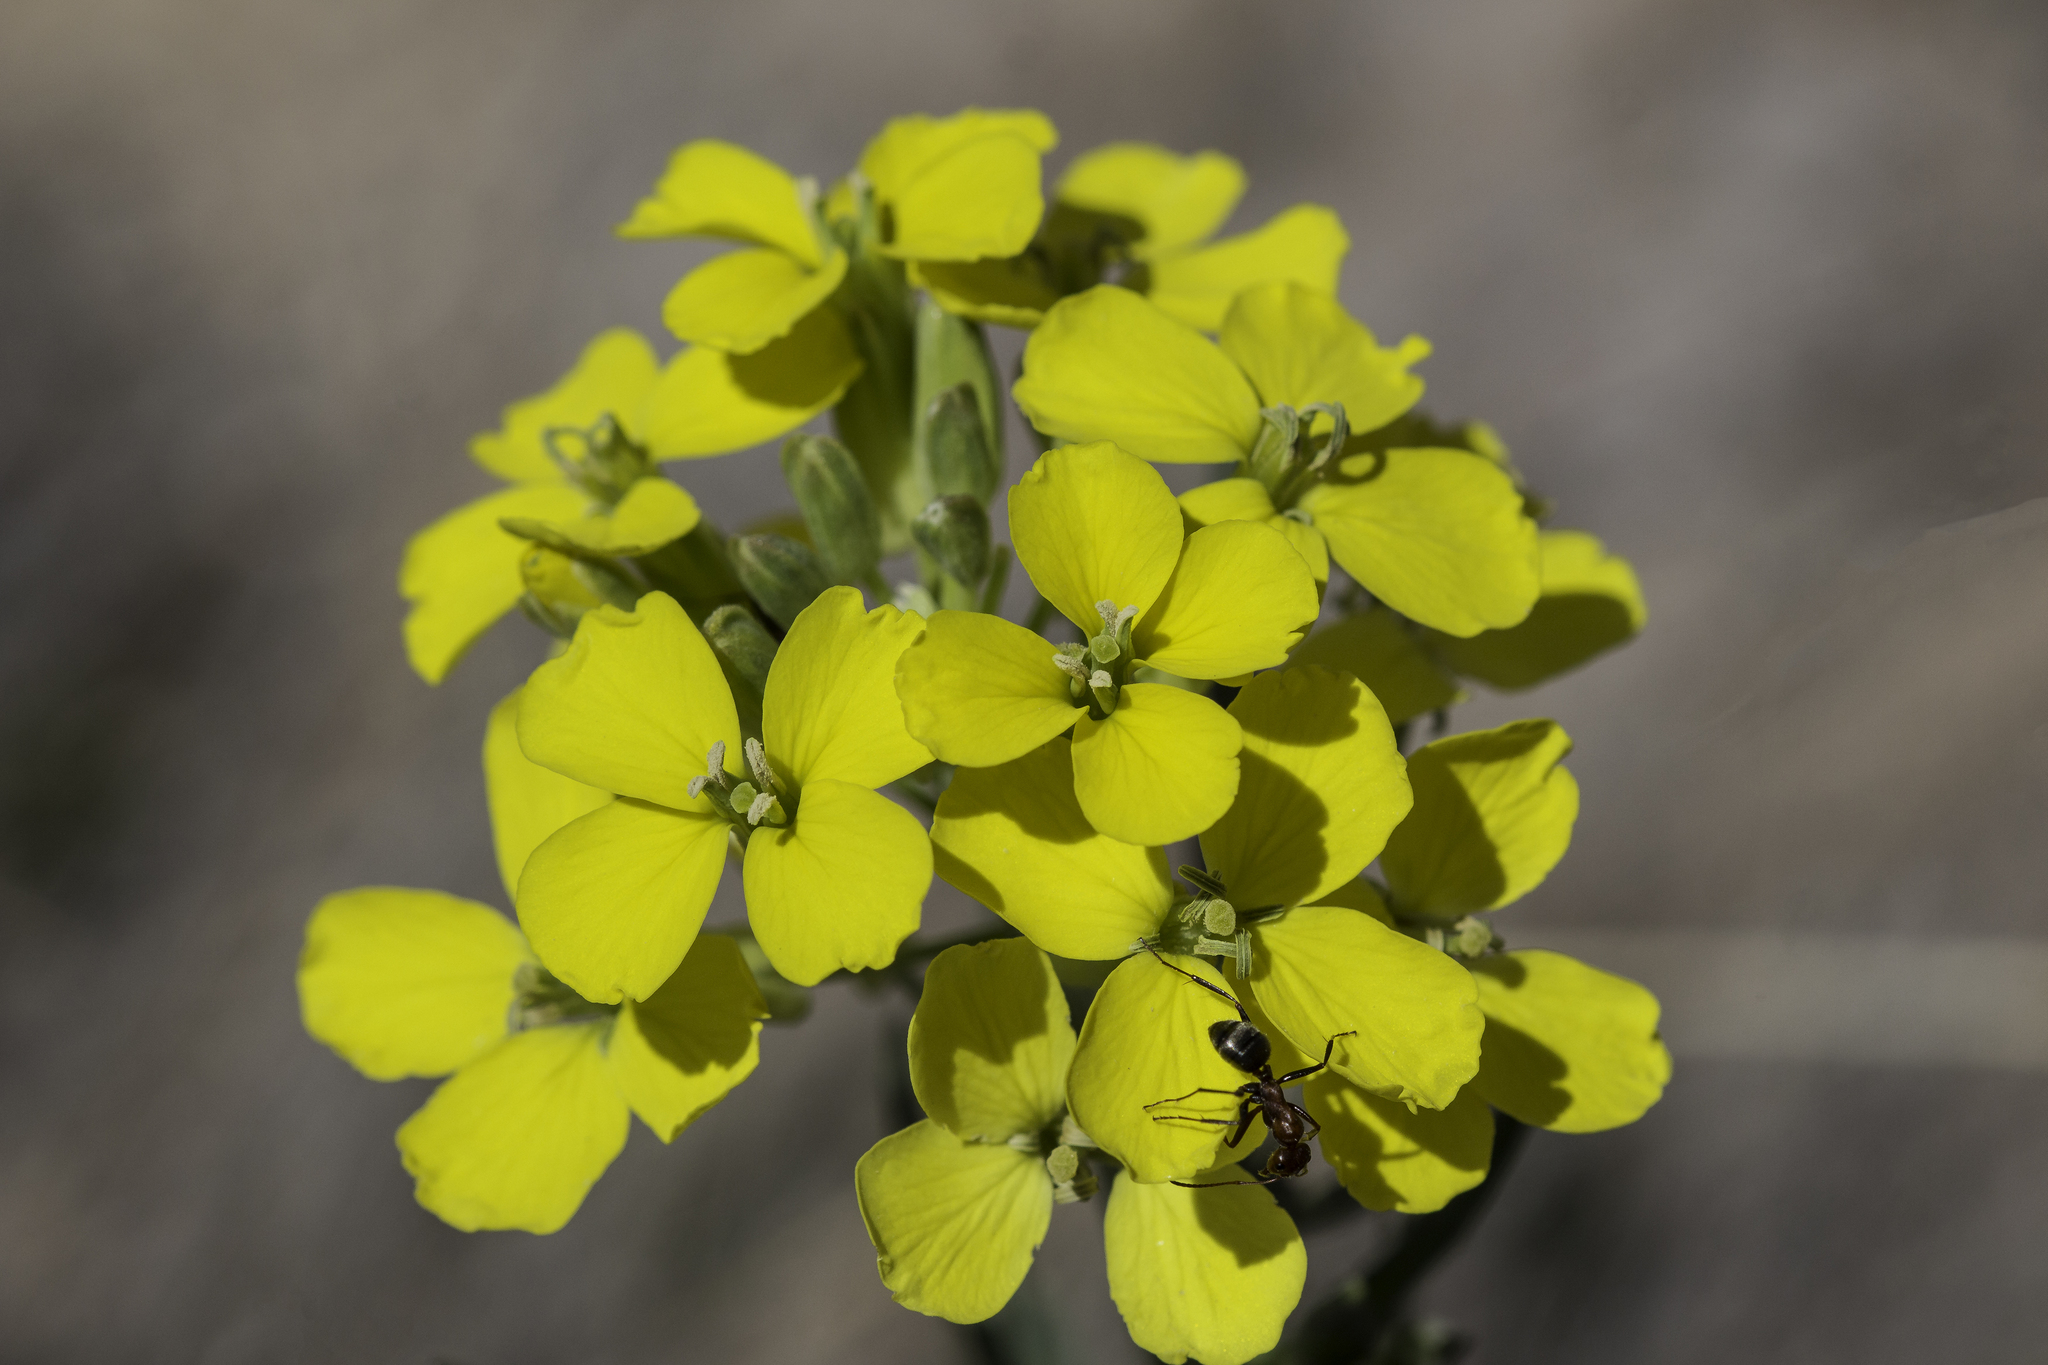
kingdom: Plantae
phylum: Tracheophyta
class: Magnoliopsida
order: Brassicales
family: Brassicaceae
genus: Erysimum
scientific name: Erysimum capitatum
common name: Western wallflower
